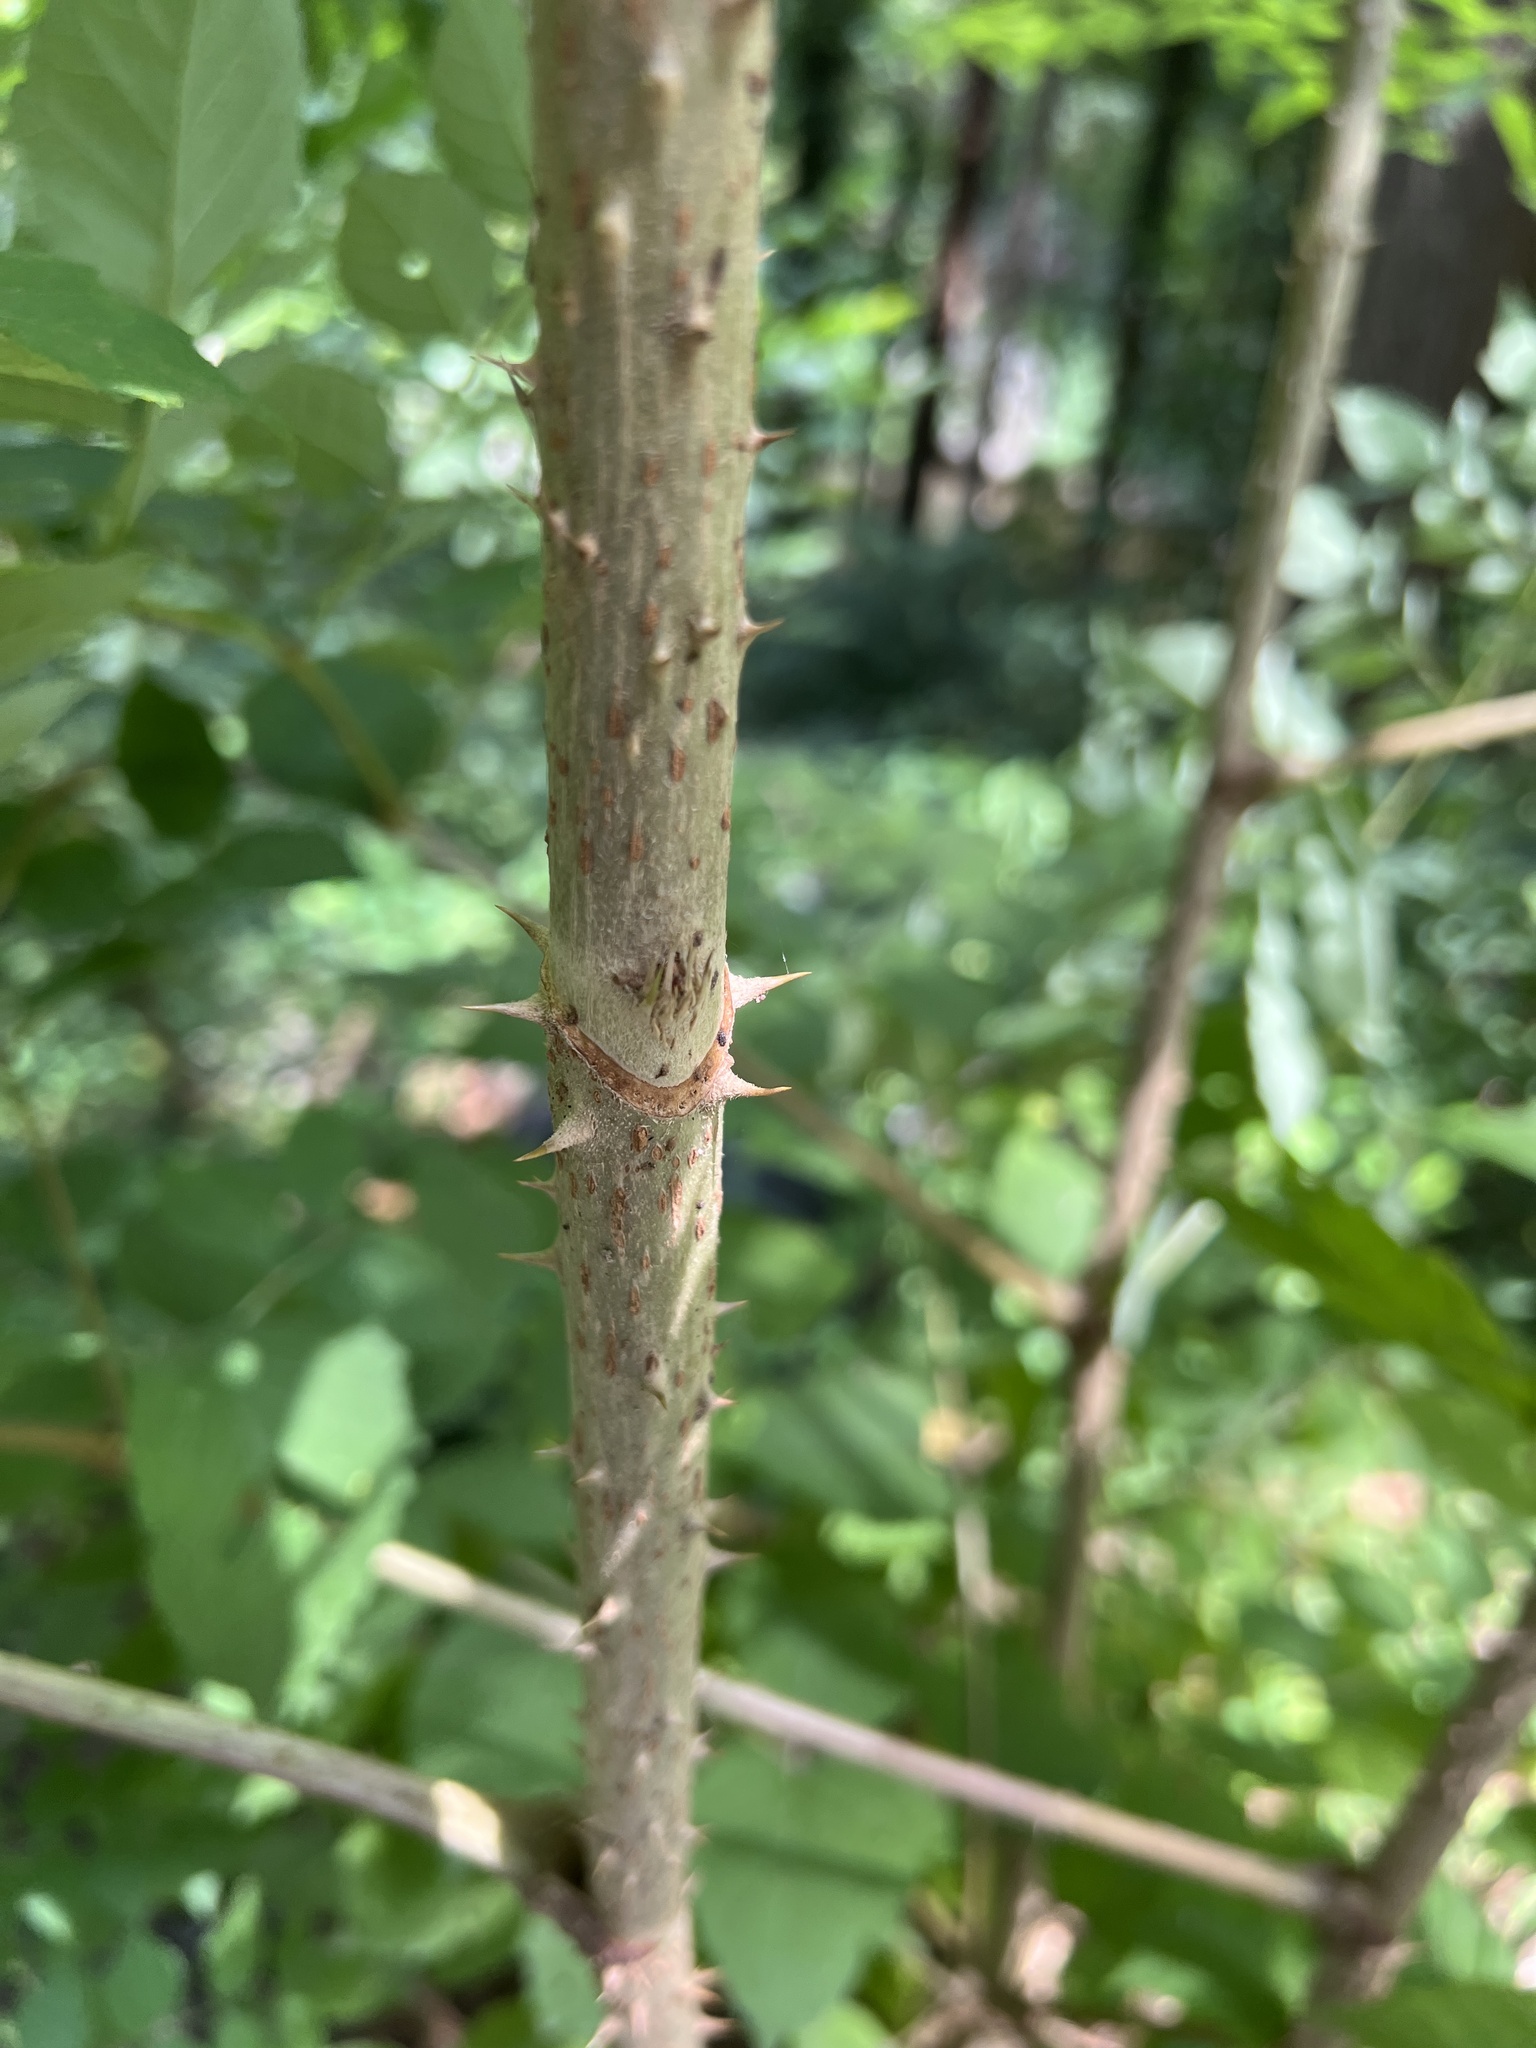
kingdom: Plantae
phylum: Tracheophyta
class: Magnoliopsida
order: Apiales
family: Araliaceae
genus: Aralia
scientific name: Aralia elata
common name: Japanese angelica-tree
